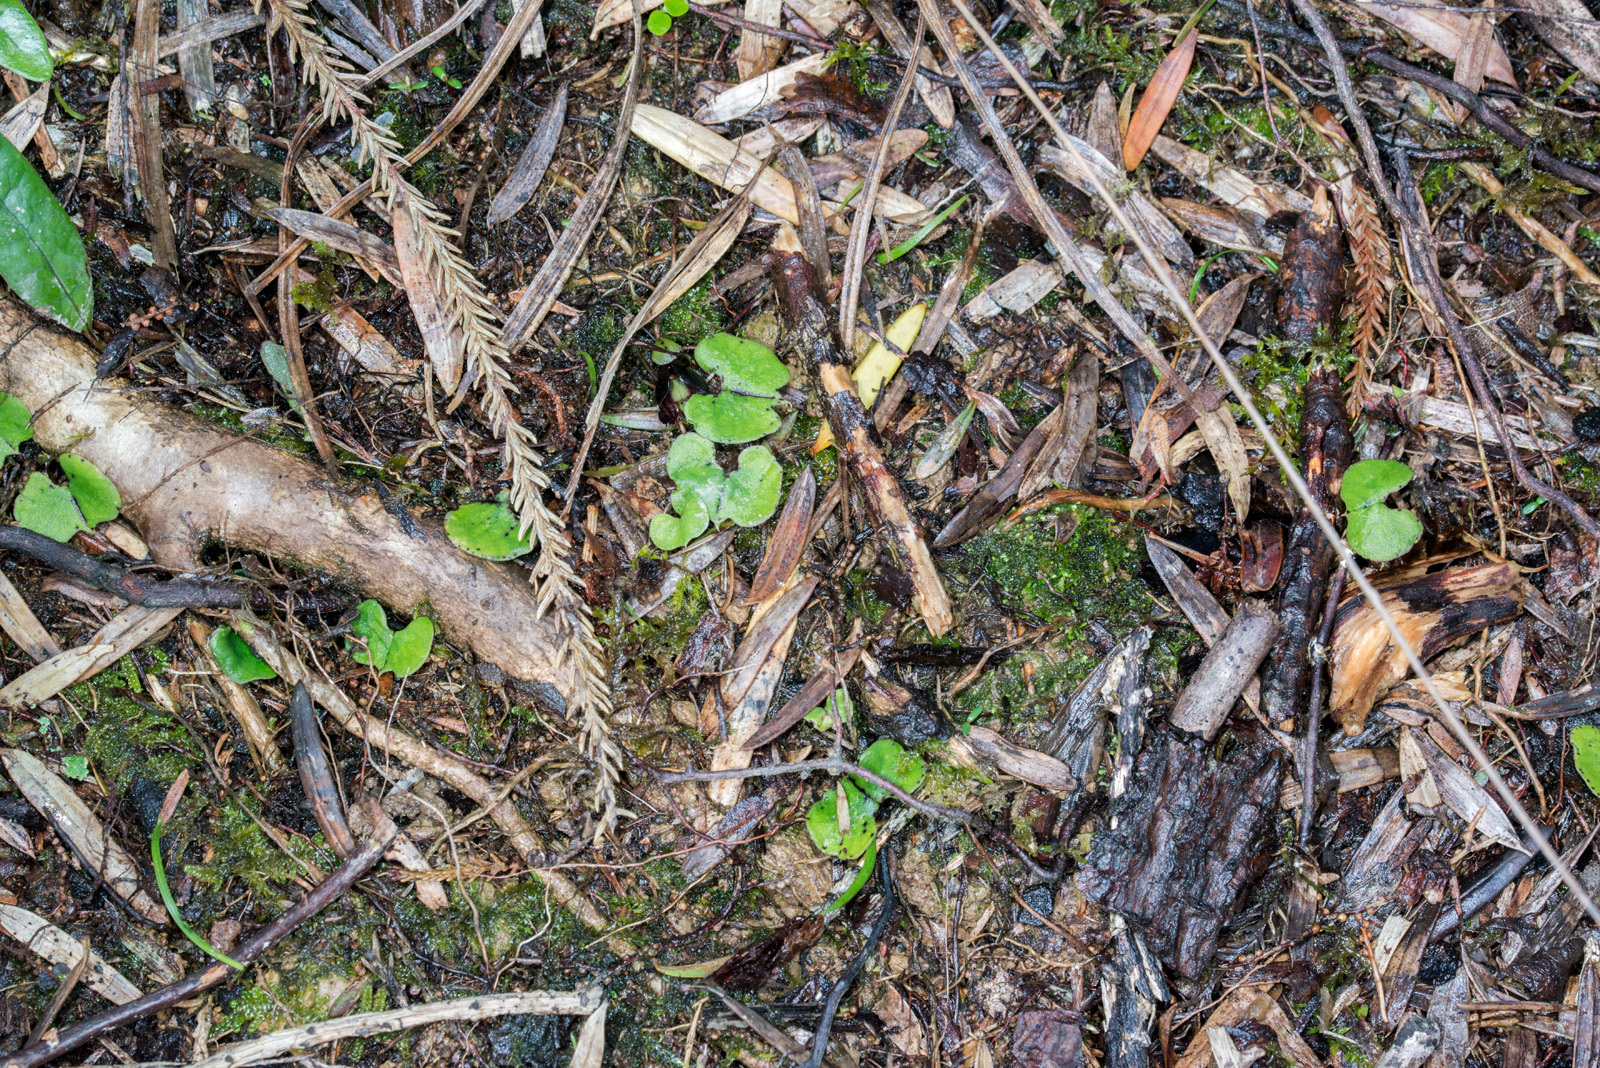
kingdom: Plantae
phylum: Tracheophyta
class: Liliopsida
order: Asparagales
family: Orchidaceae
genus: Corybas
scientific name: Corybas trilobus
